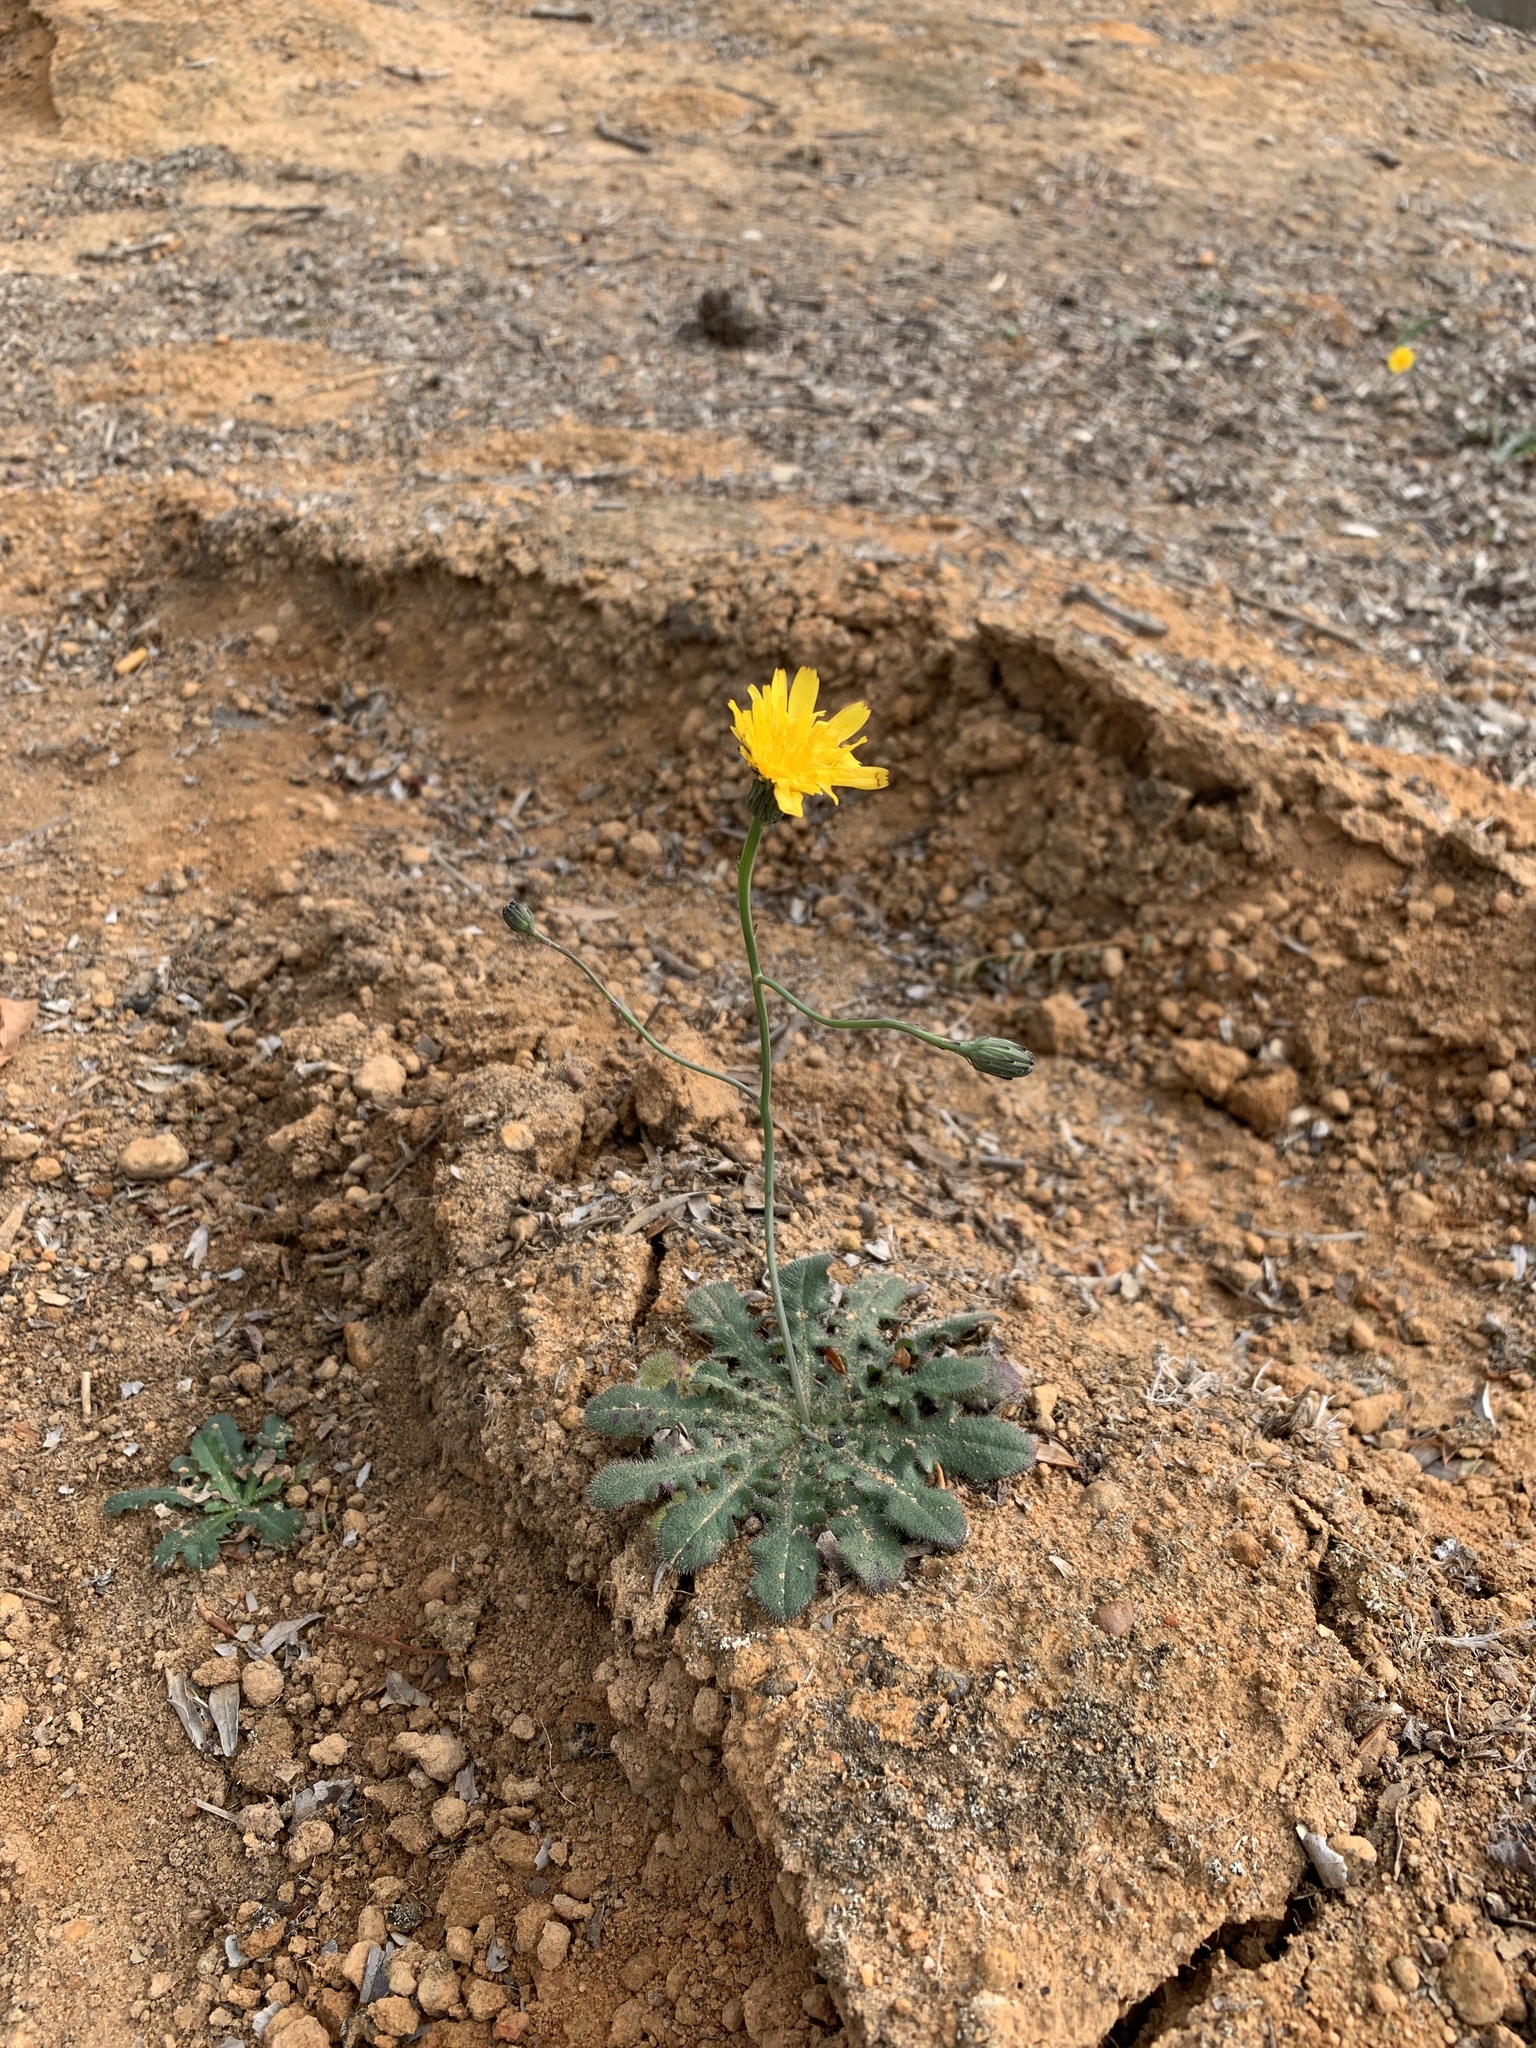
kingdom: Plantae
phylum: Tracheophyta
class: Magnoliopsida
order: Asterales
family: Asteraceae
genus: Hypochaeris
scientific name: Hypochaeris radicata
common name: Flatweed
